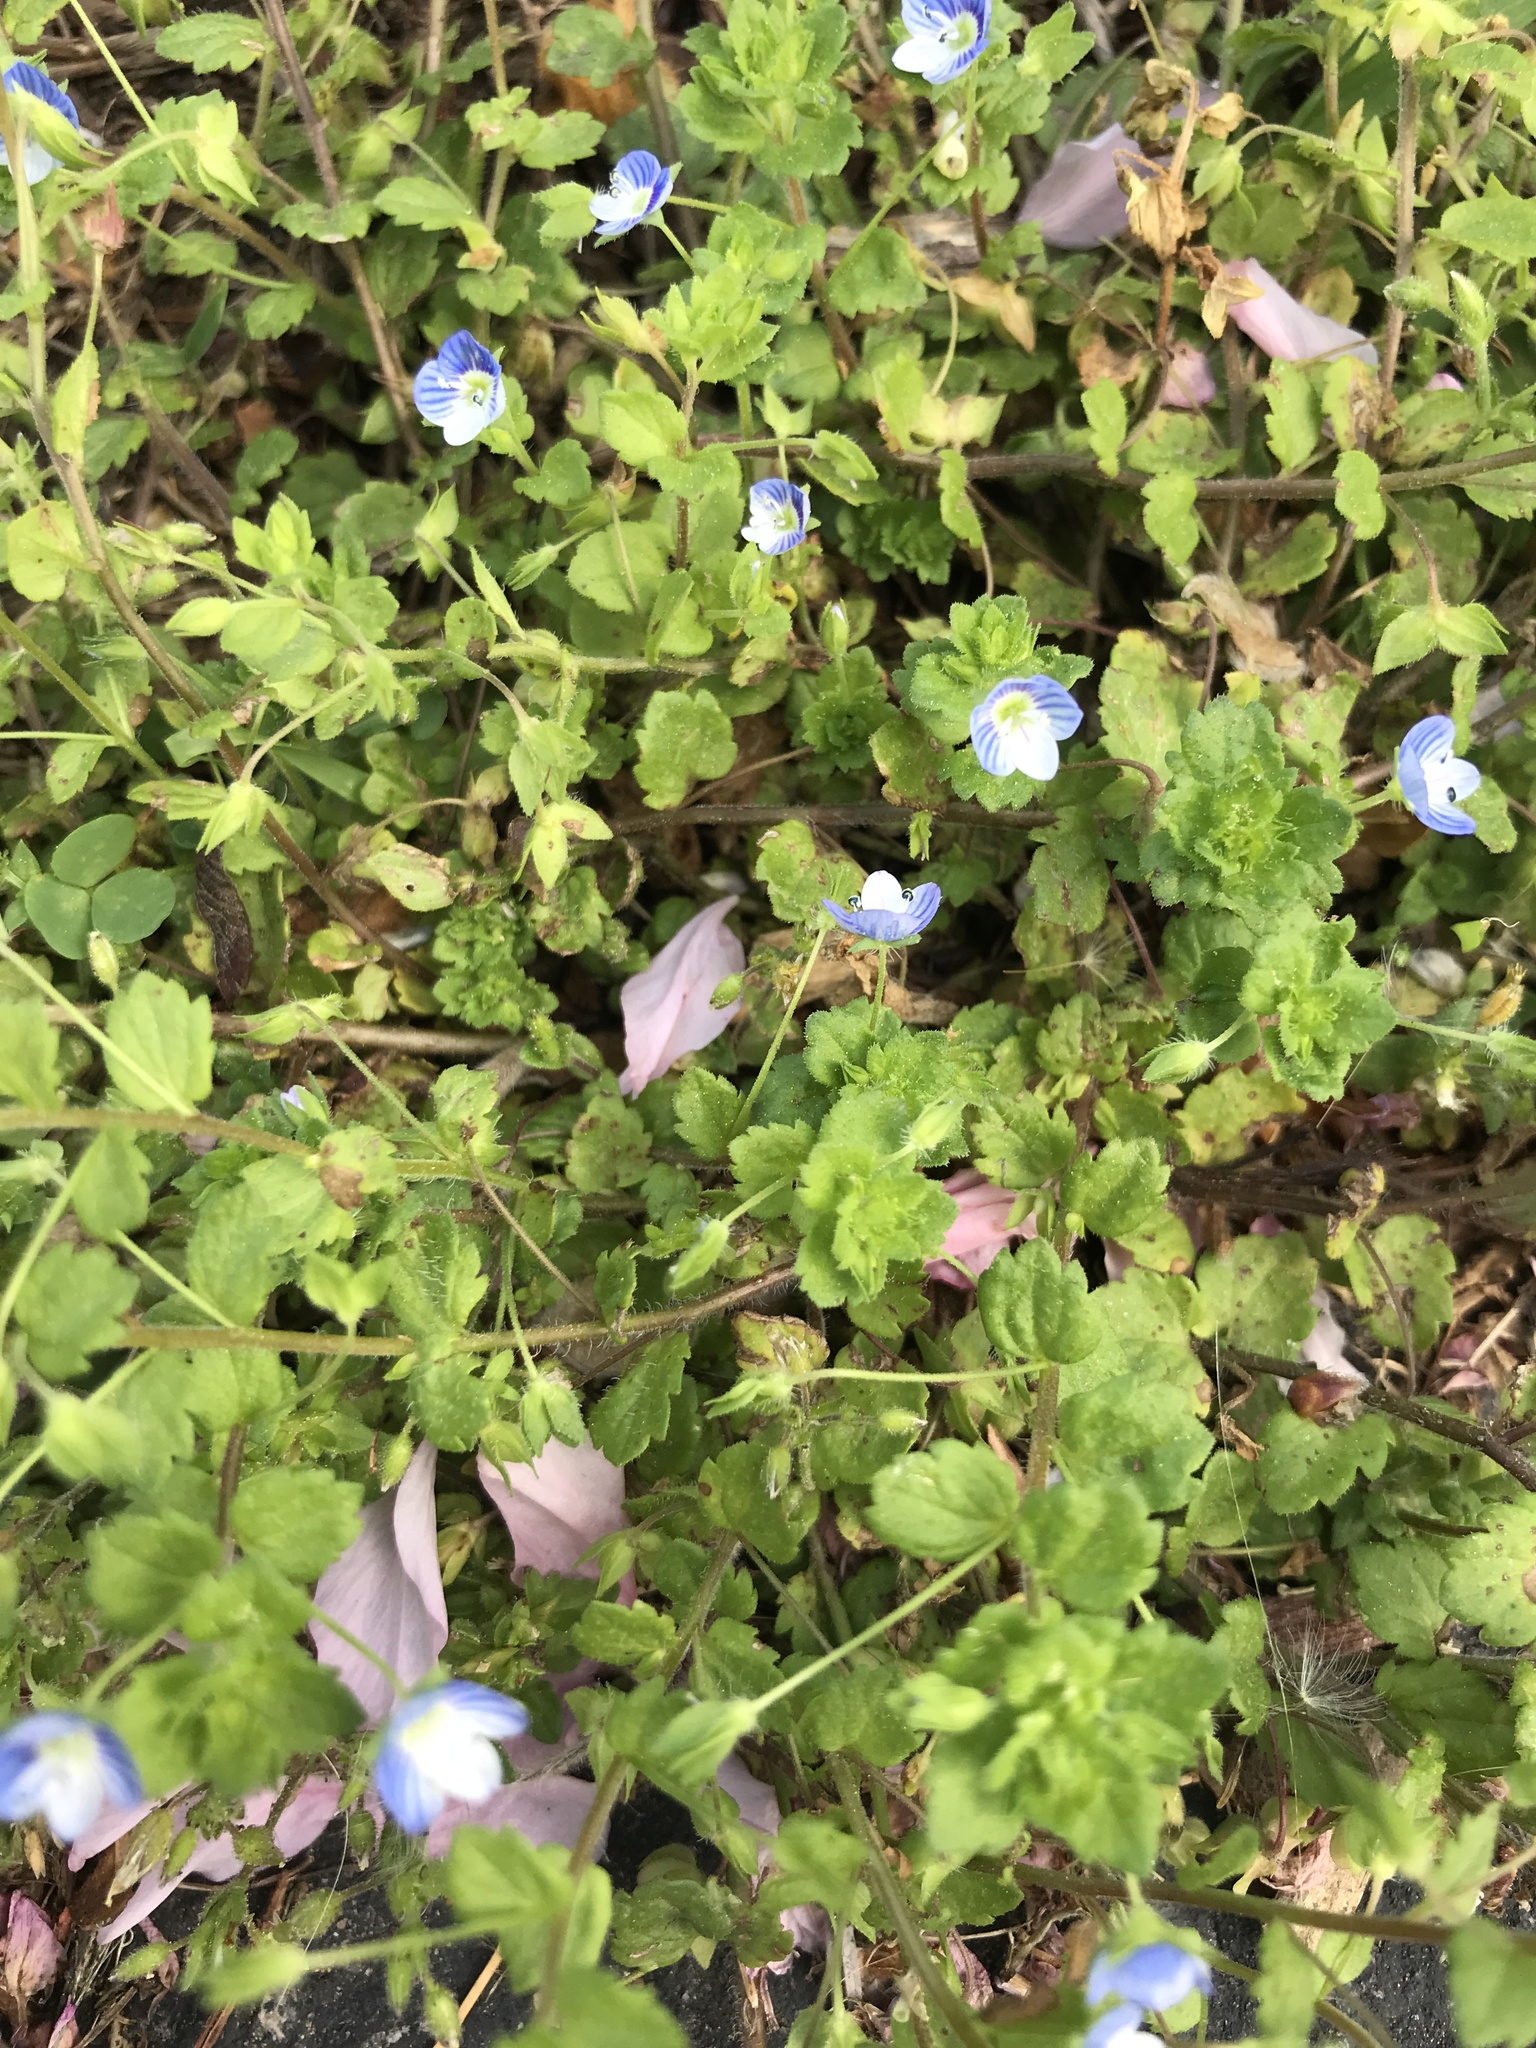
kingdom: Plantae
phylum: Tracheophyta
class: Magnoliopsida
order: Lamiales
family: Plantaginaceae
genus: Veronica
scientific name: Veronica persica
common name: Common field-speedwell
